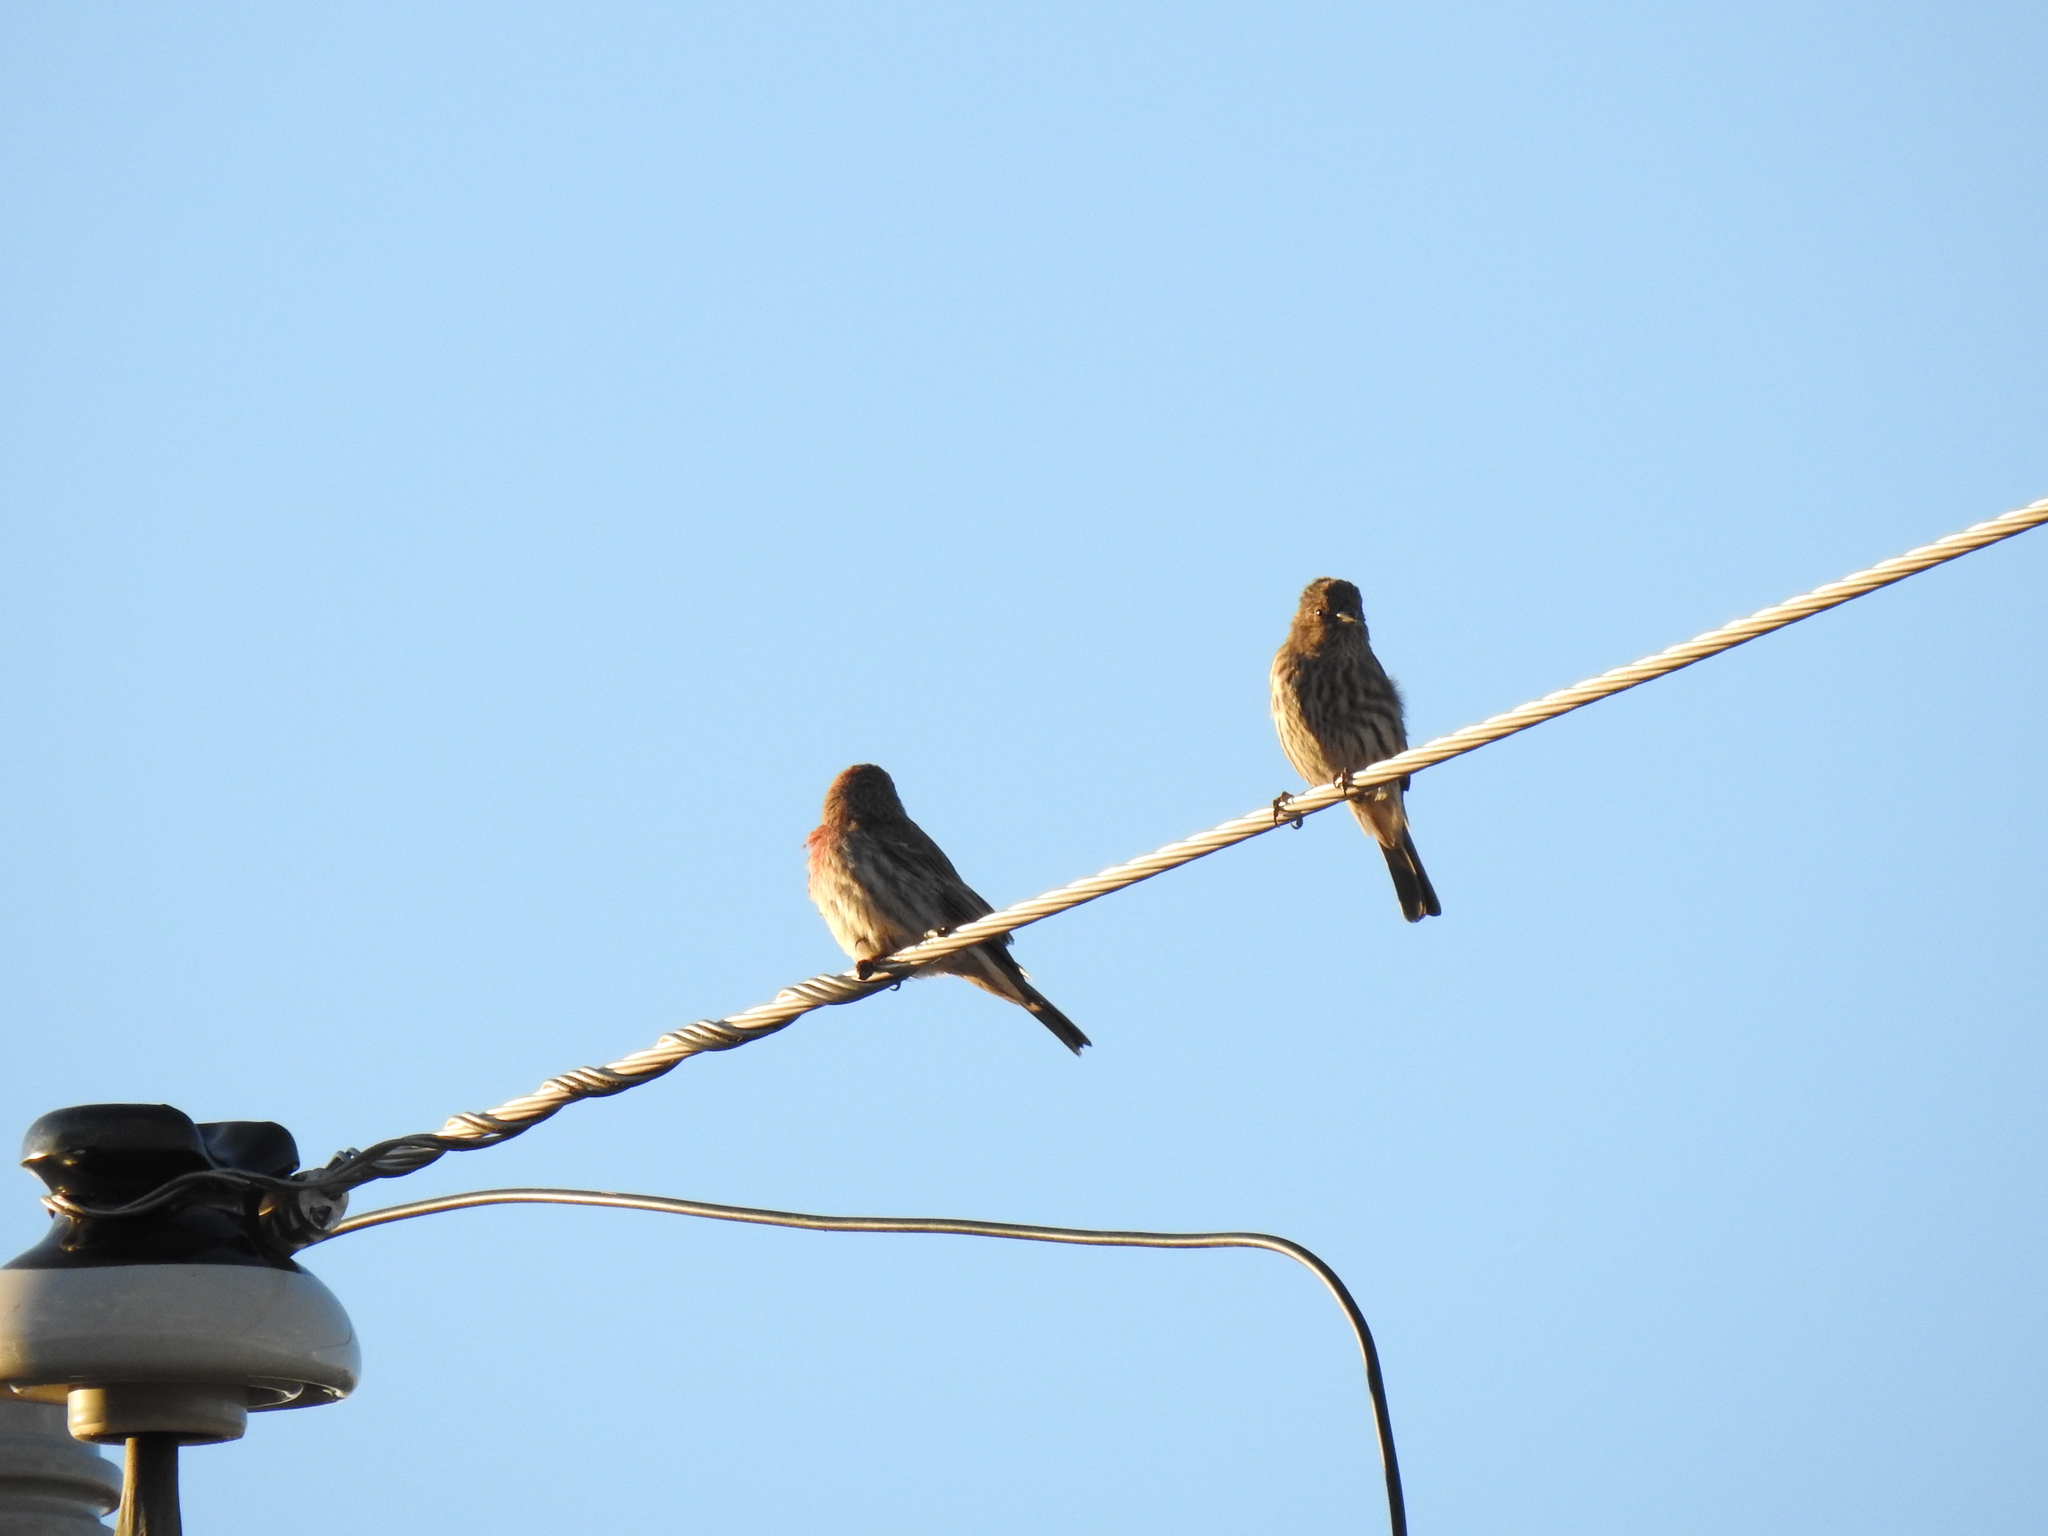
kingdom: Animalia
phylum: Chordata
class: Aves
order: Passeriformes
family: Fringillidae
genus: Haemorhous
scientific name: Haemorhous mexicanus
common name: House finch
